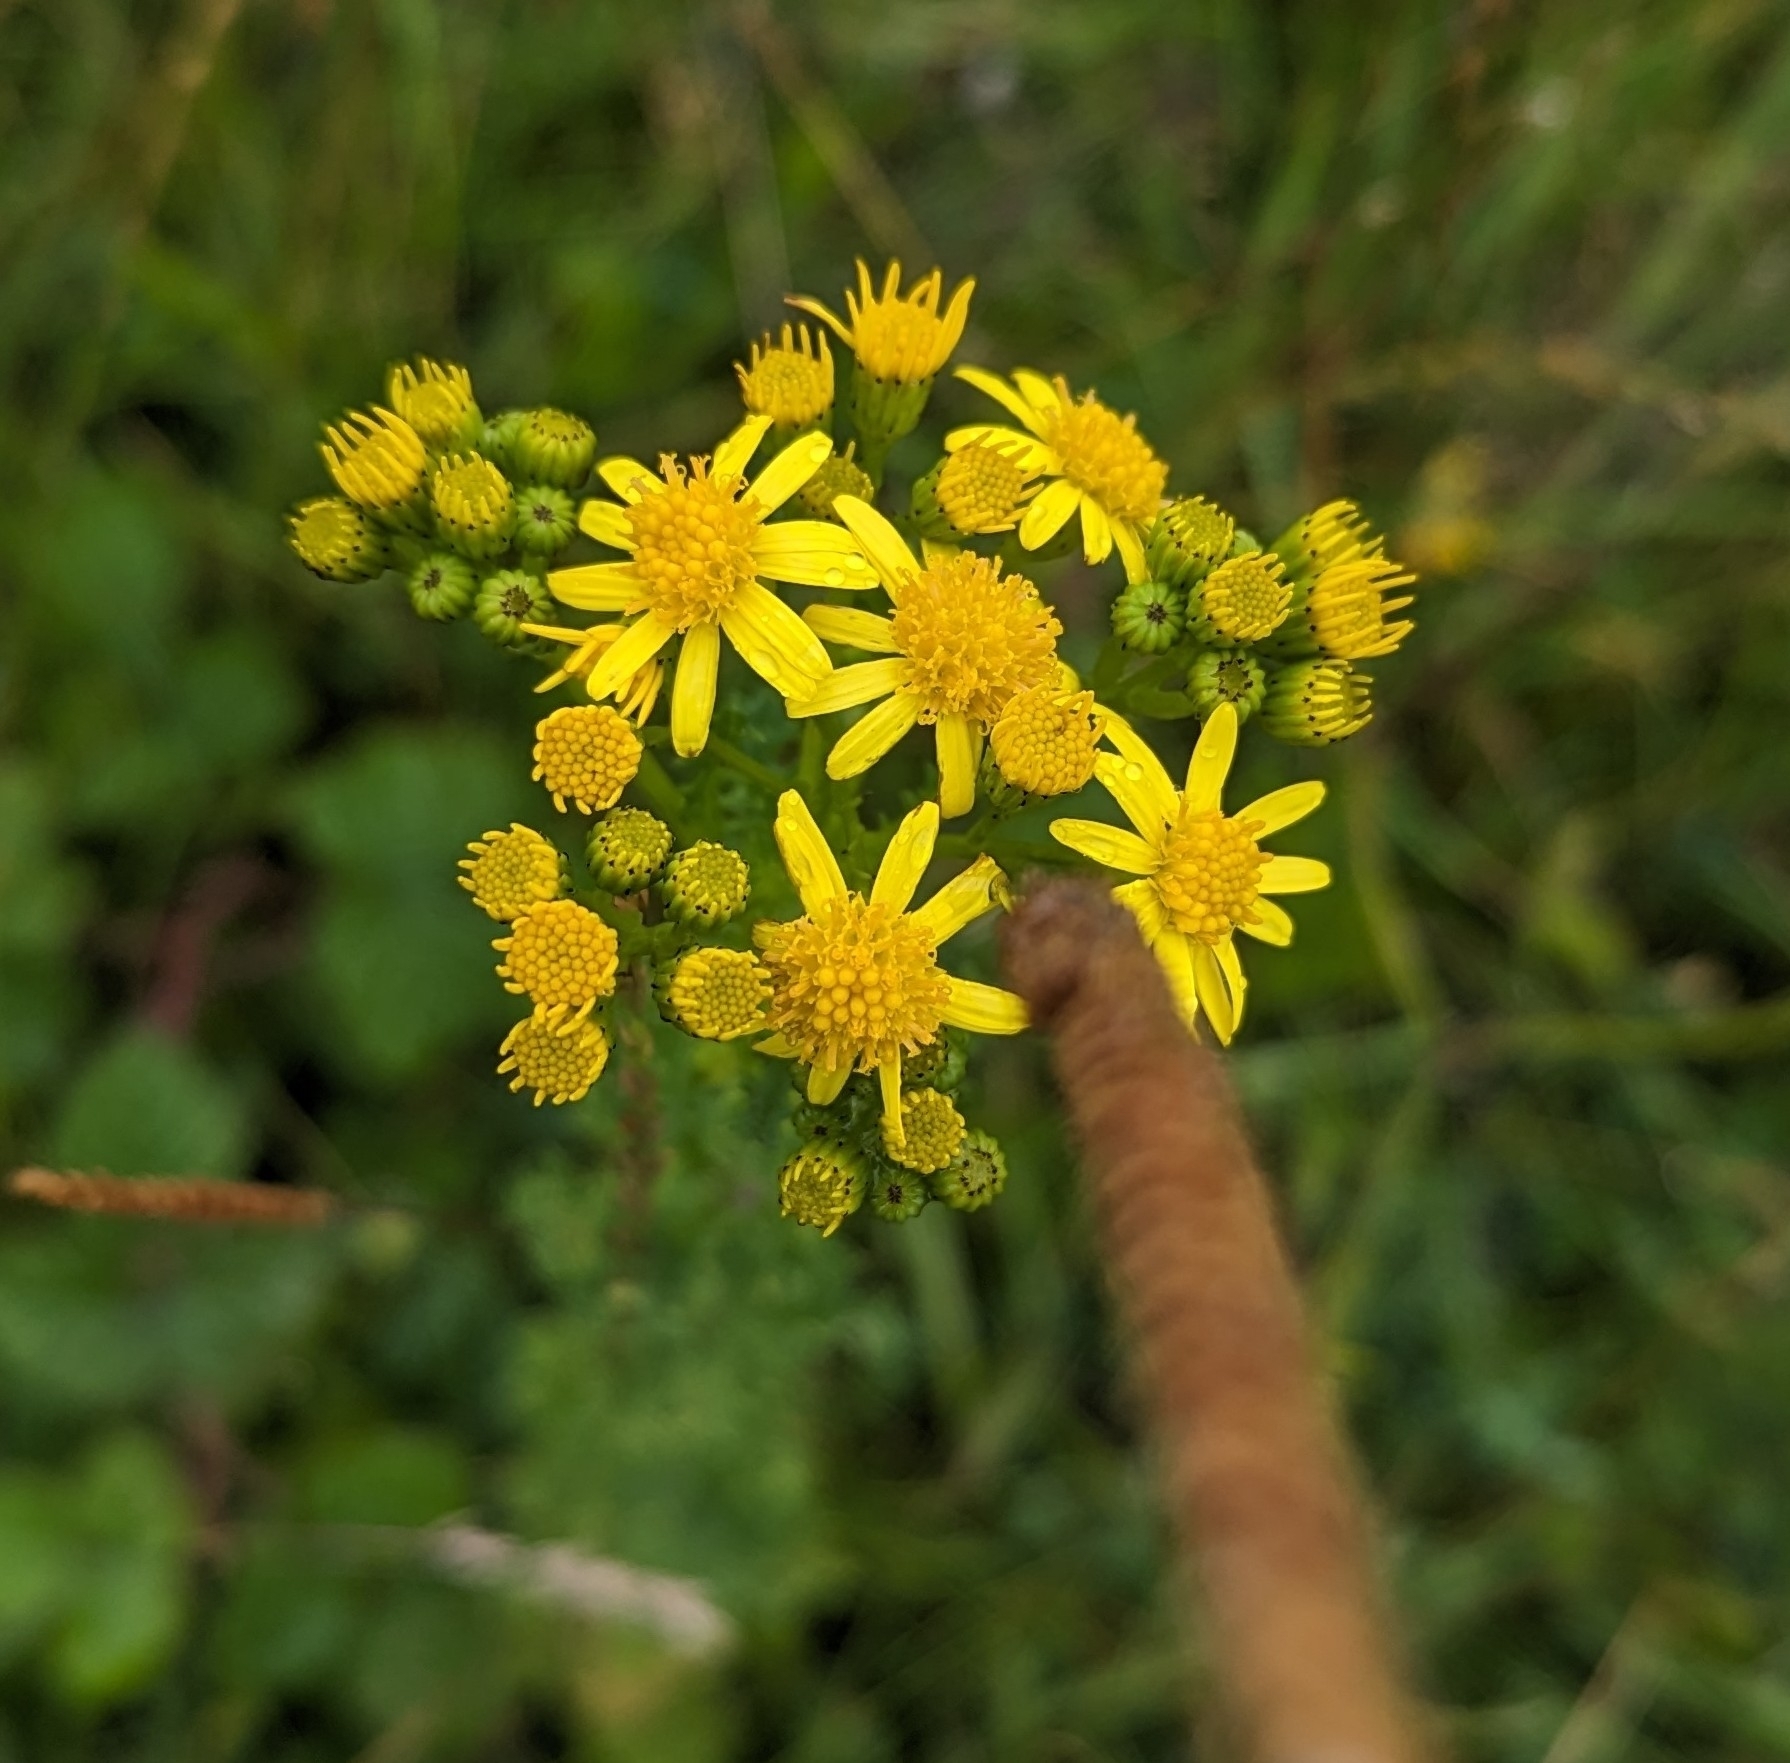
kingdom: Plantae
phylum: Tracheophyta
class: Magnoliopsida
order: Asterales
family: Asteraceae
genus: Jacobaea
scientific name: Jacobaea vulgaris
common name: Stinking willie
